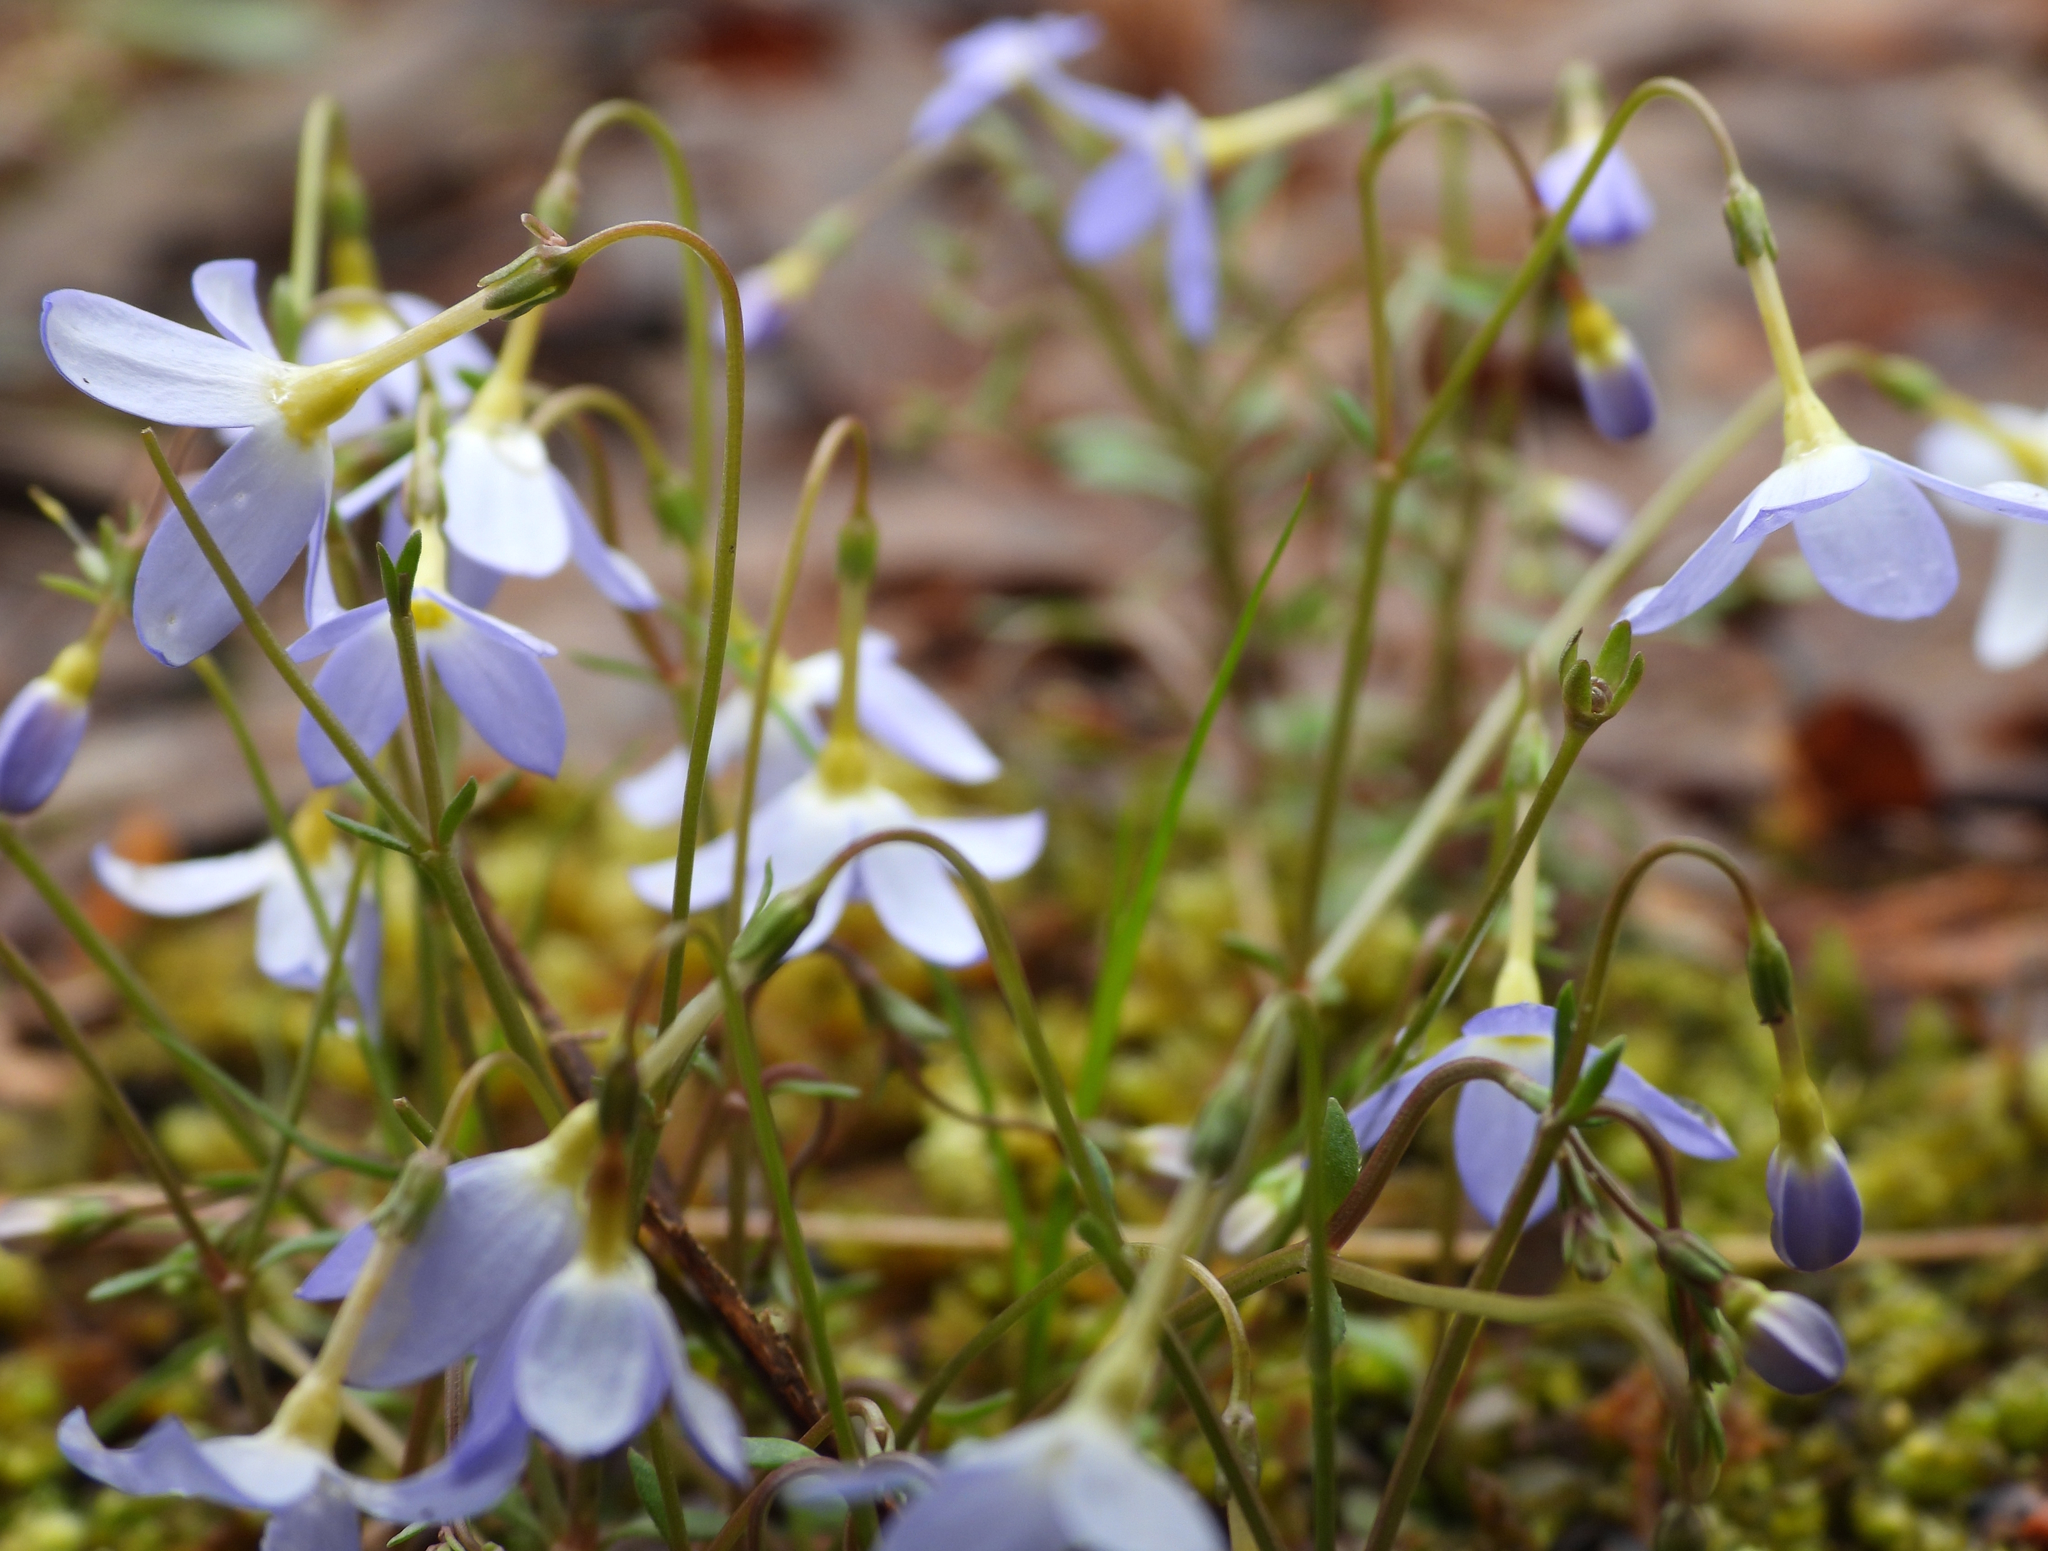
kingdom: Plantae
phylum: Tracheophyta
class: Magnoliopsida
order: Gentianales
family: Rubiaceae
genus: Houstonia
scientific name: Houstonia caerulea
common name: Bluets
